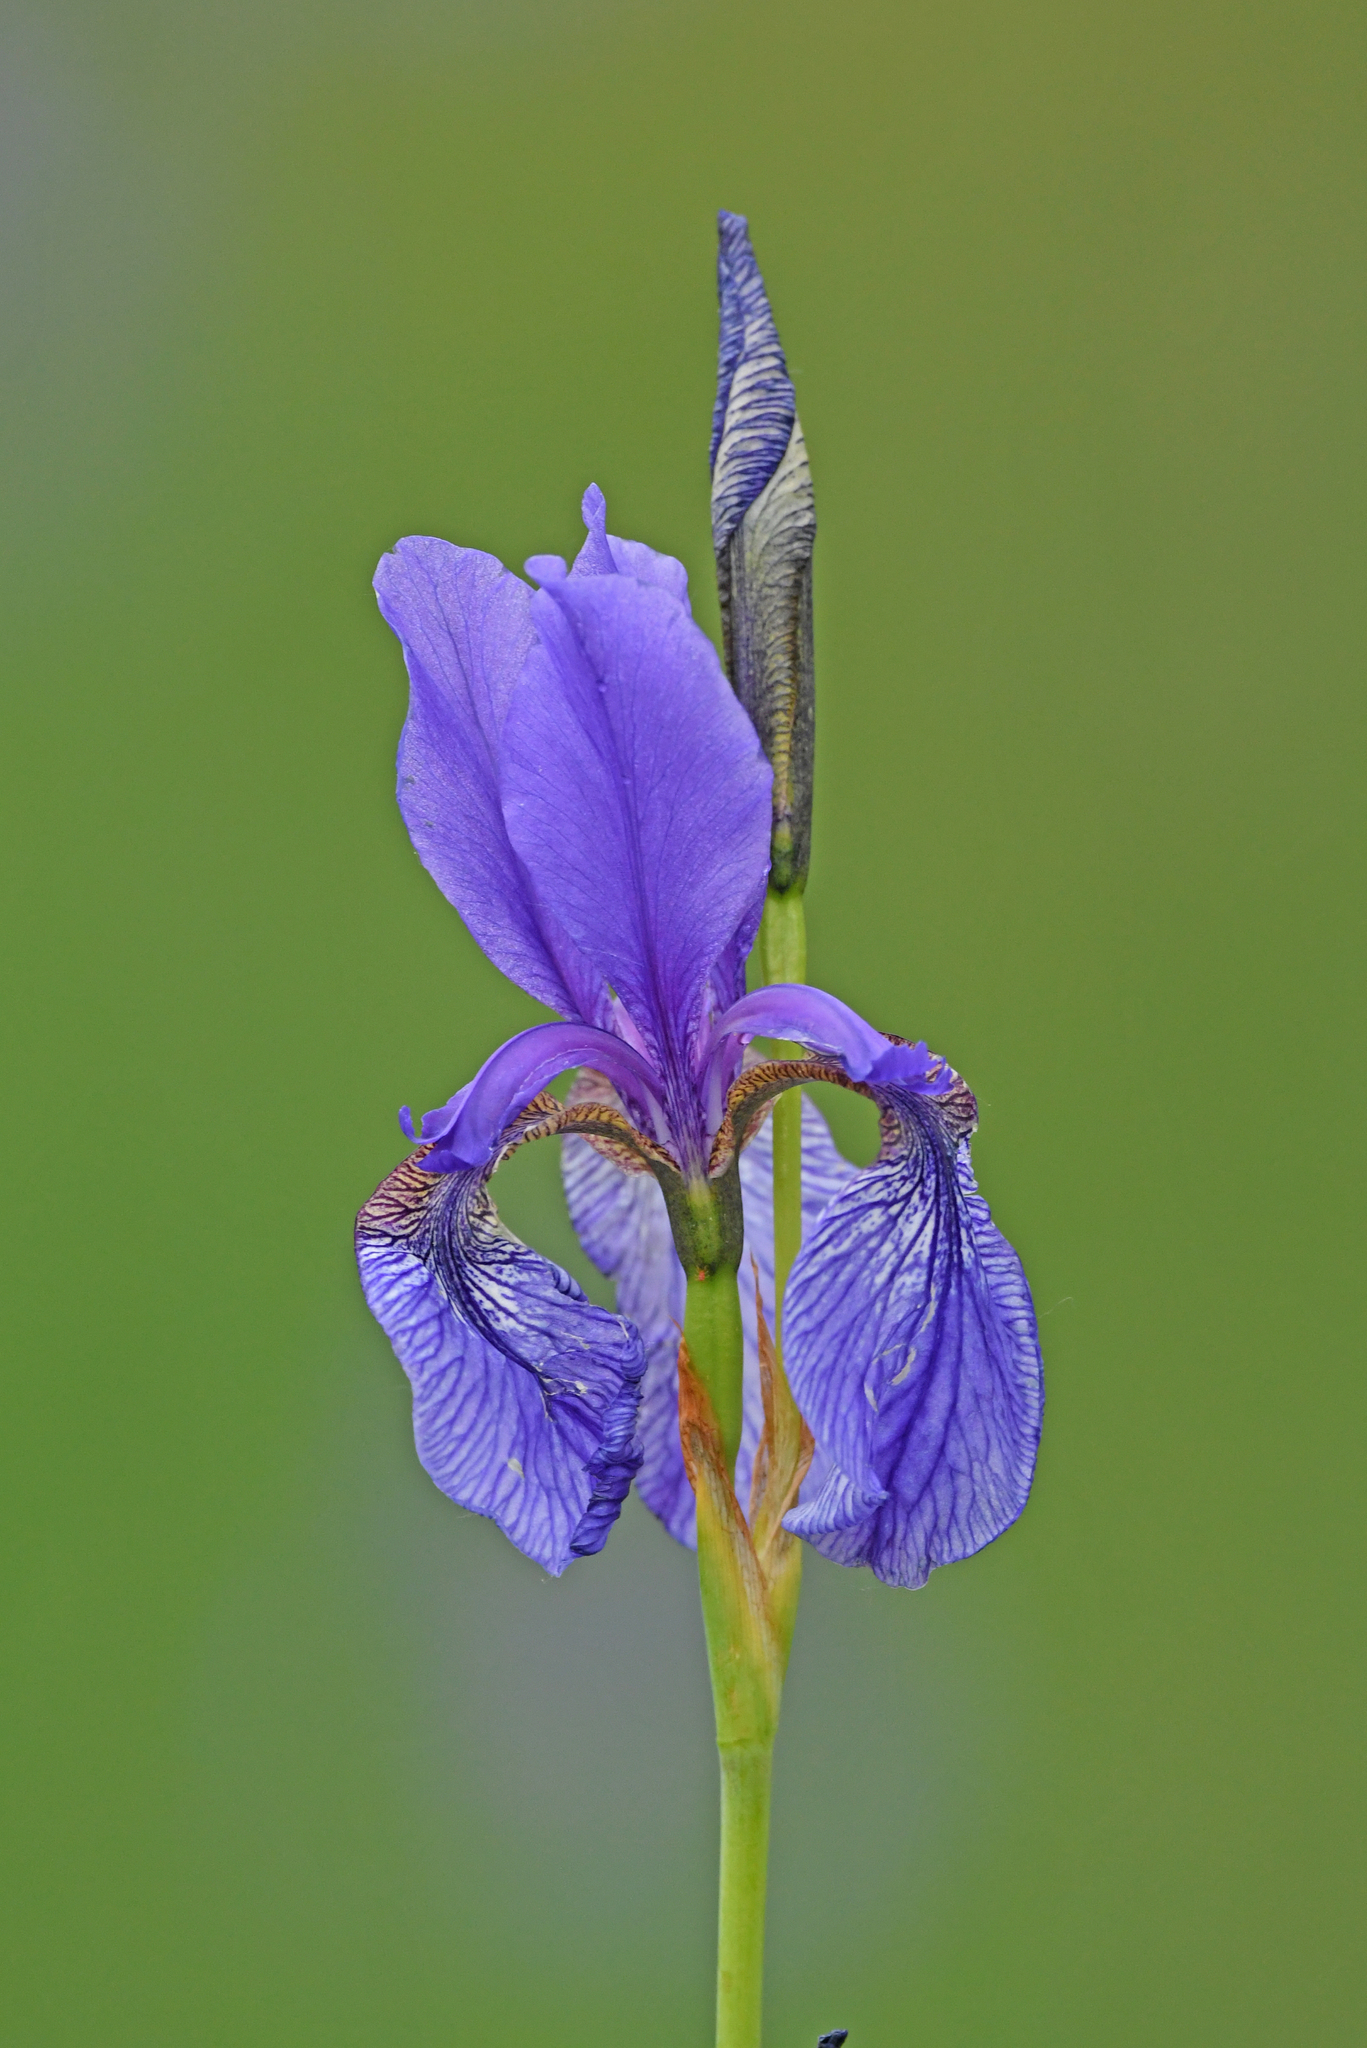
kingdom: Plantae
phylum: Tracheophyta
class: Liliopsida
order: Asparagales
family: Iridaceae
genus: Iris
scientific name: Iris sibirica
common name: Siberian iris
